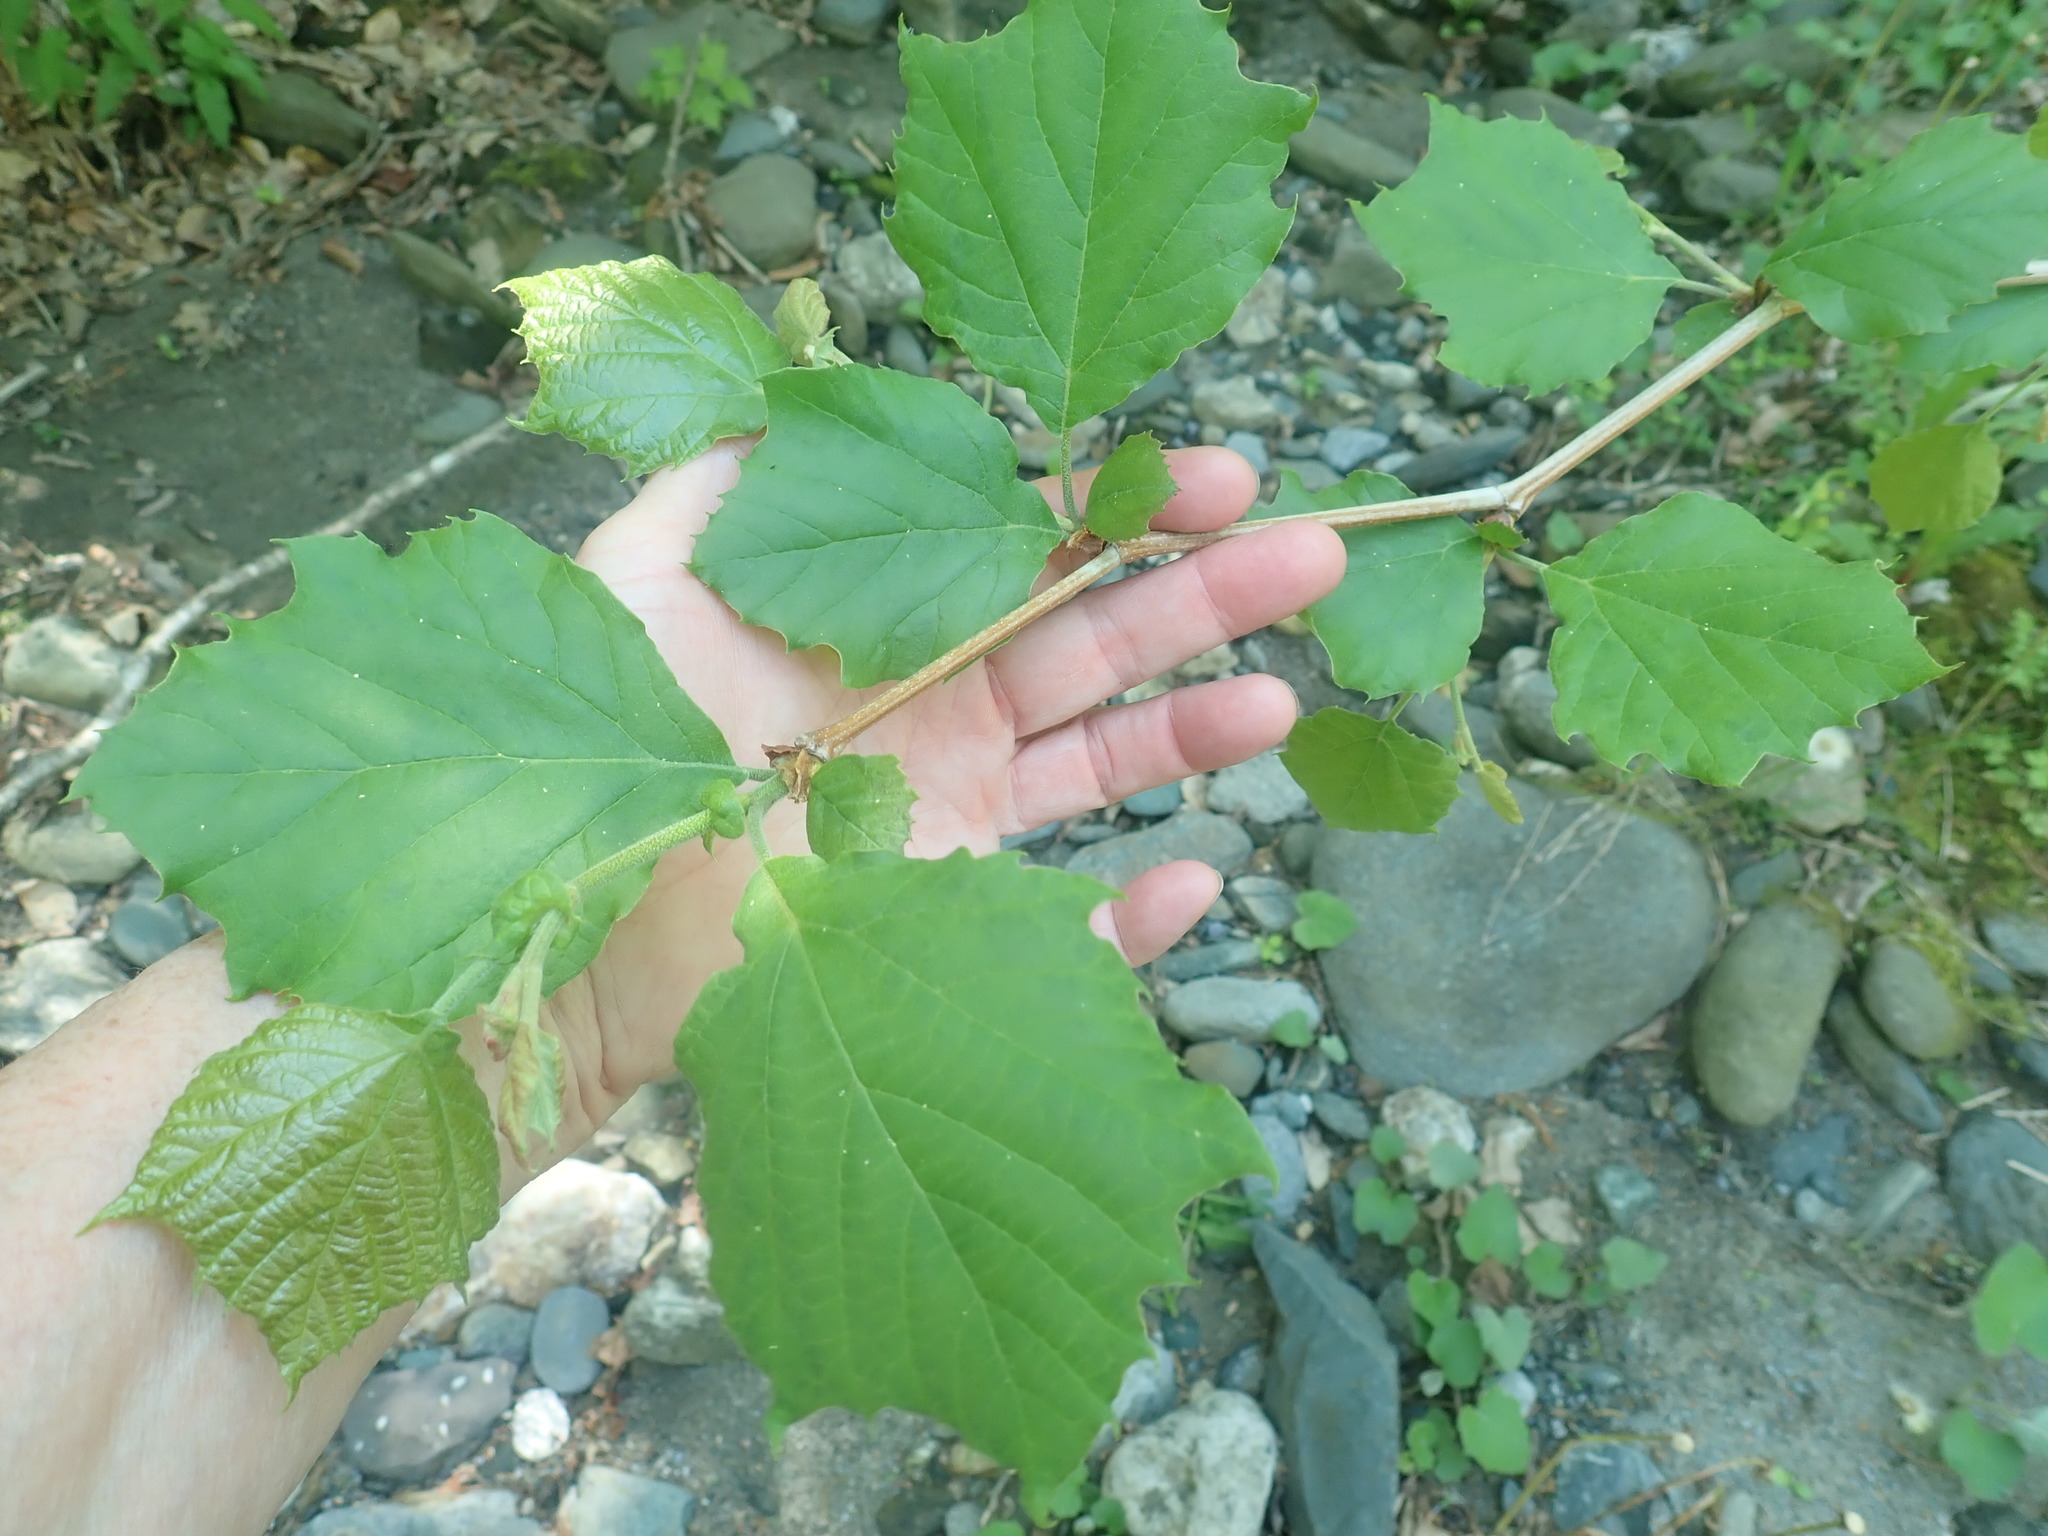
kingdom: Plantae
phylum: Tracheophyta
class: Magnoliopsida
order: Proteales
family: Platanaceae
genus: Platanus
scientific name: Platanus occidentalis
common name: American sycamore
